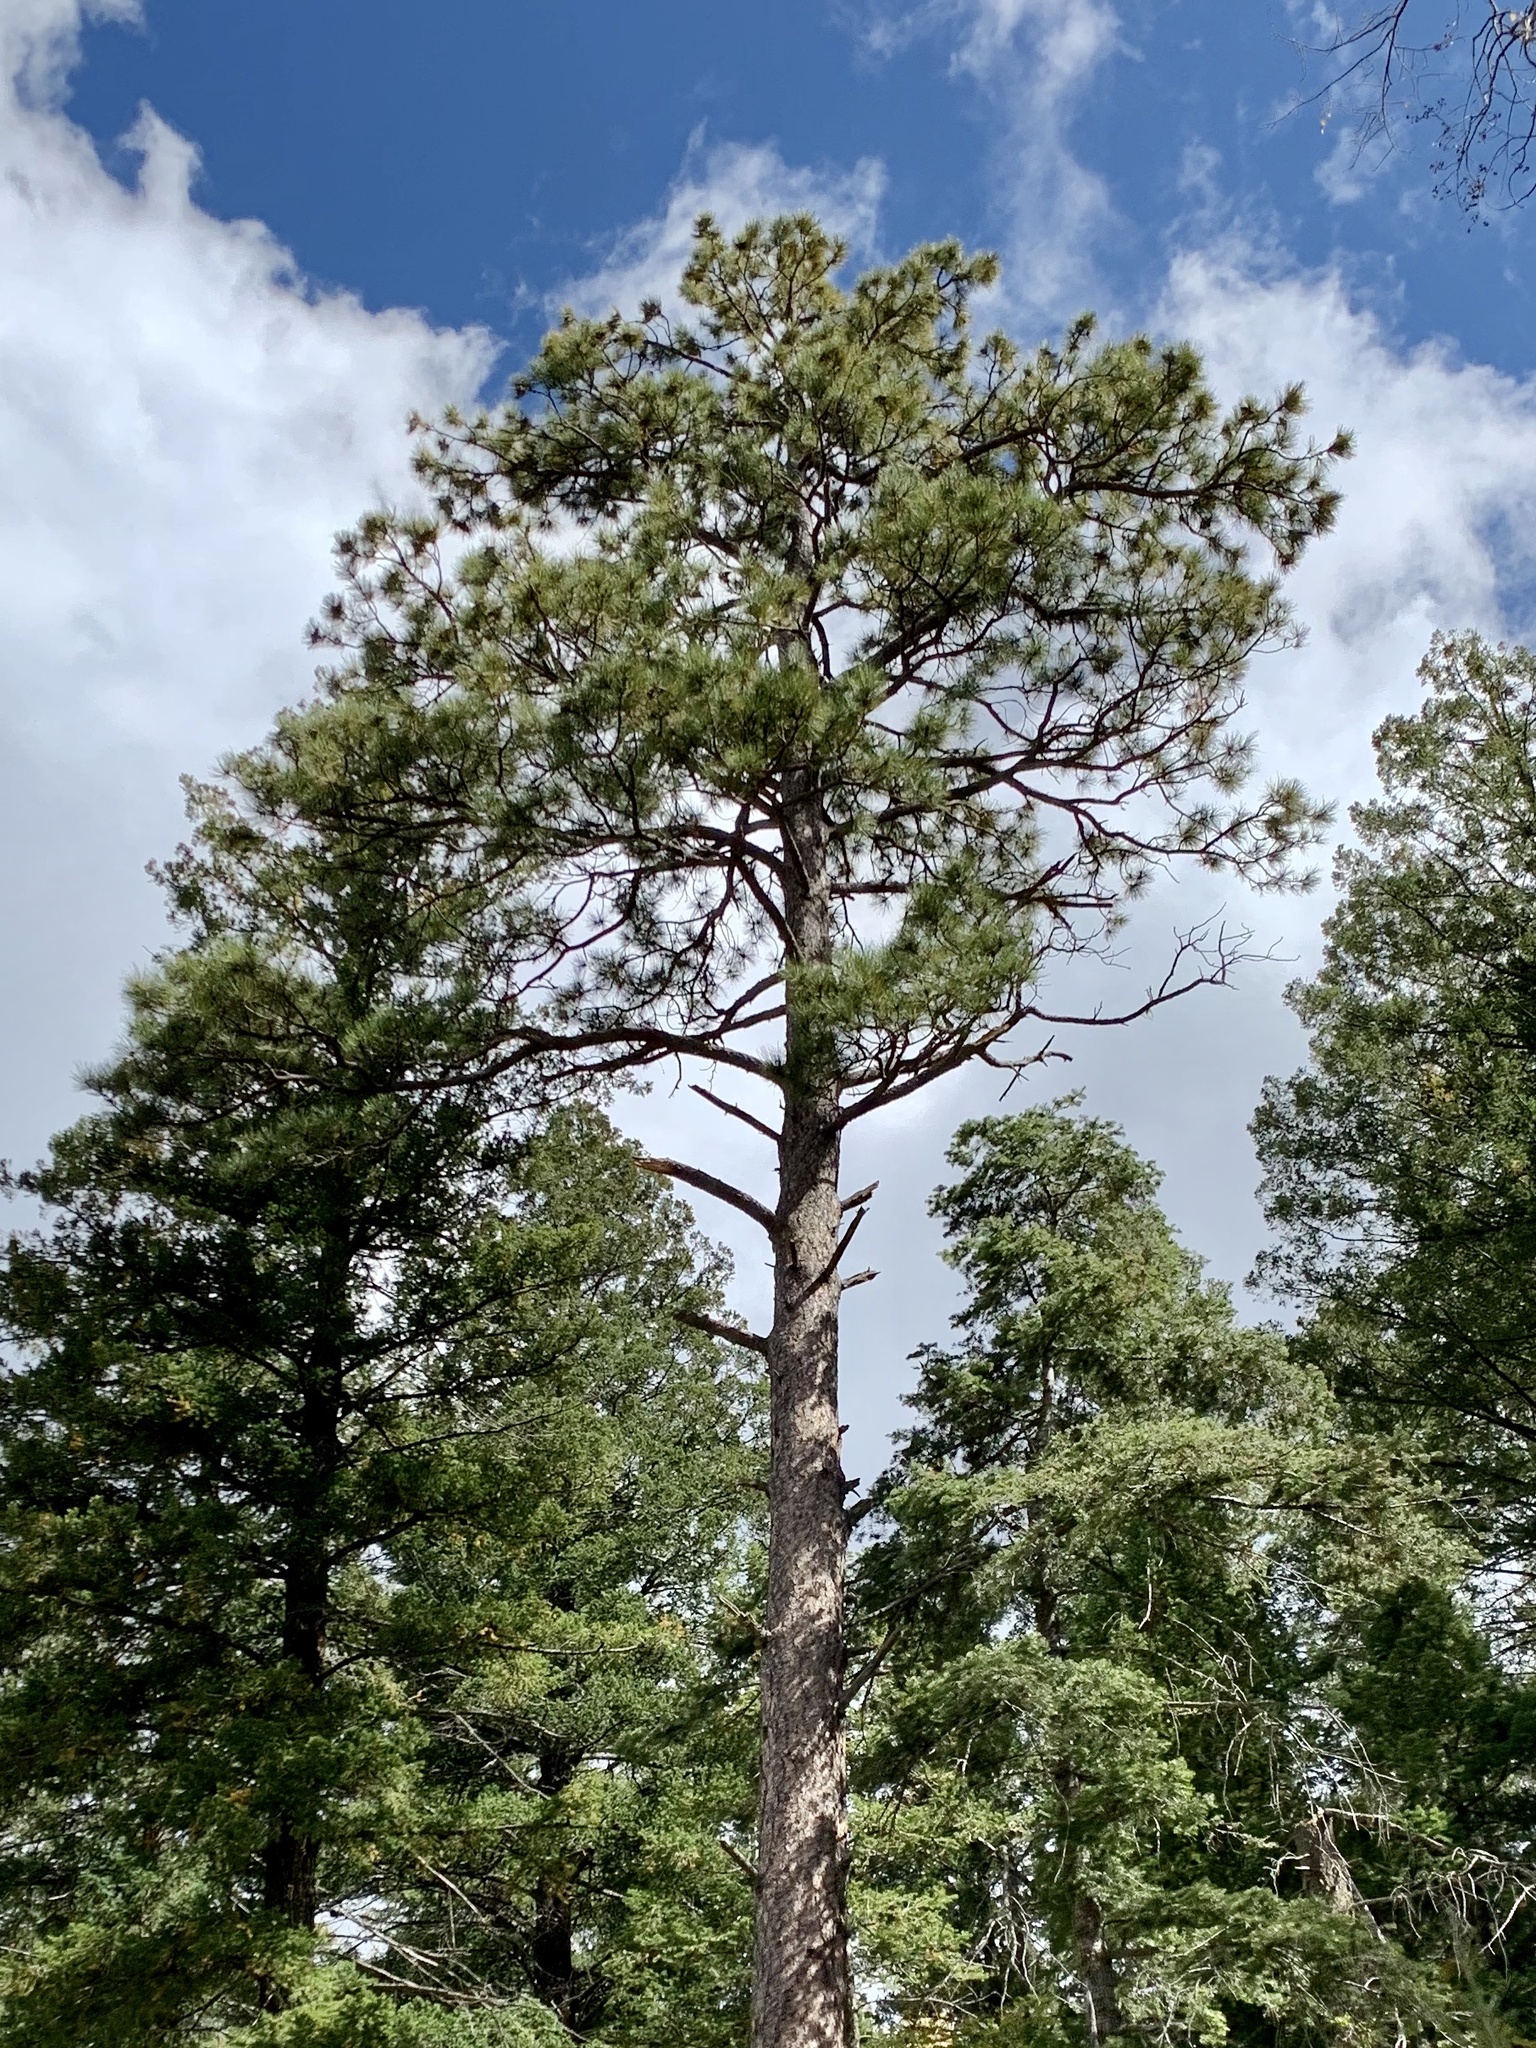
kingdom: Plantae
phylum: Tracheophyta
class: Pinopsida
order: Pinales
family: Pinaceae
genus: Pinus
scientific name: Pinus ponderosa
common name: Western yellow-pine
